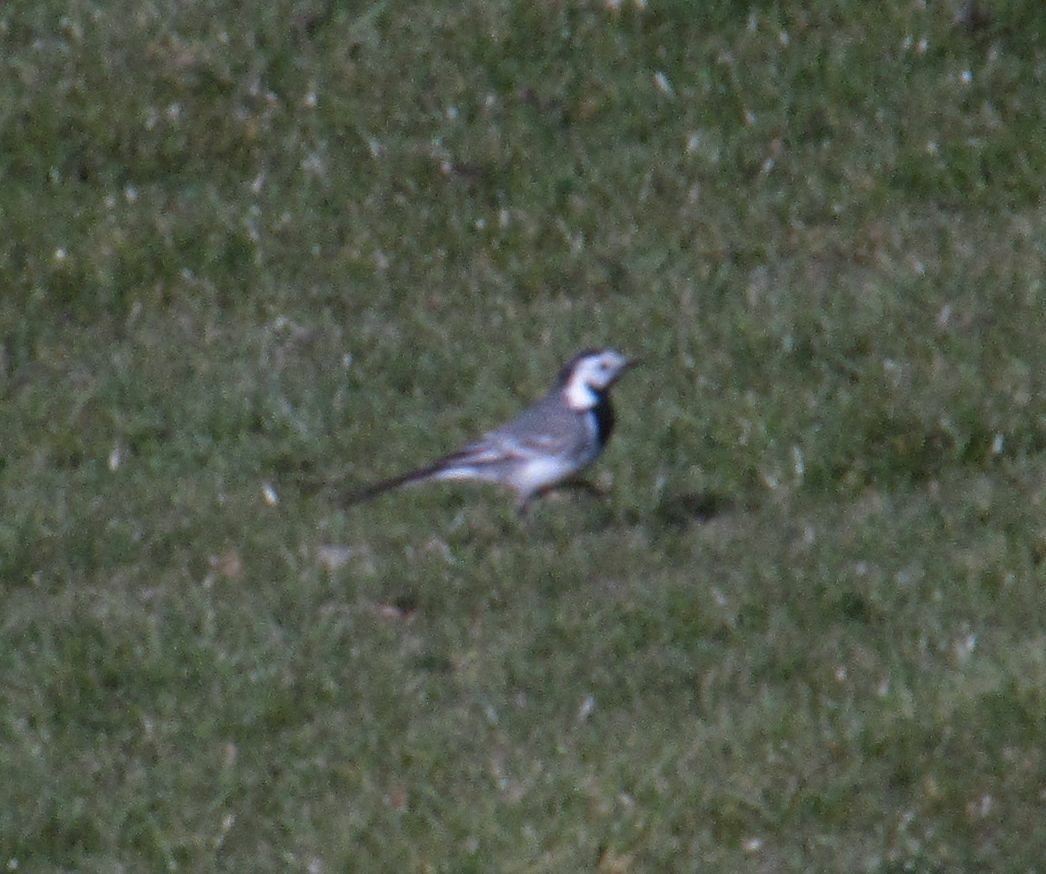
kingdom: Animalia
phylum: Chordata
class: Aves
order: Passeriformes
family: Motacillidae
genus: Motacilla
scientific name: Motacilla alba
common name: White wagtail
